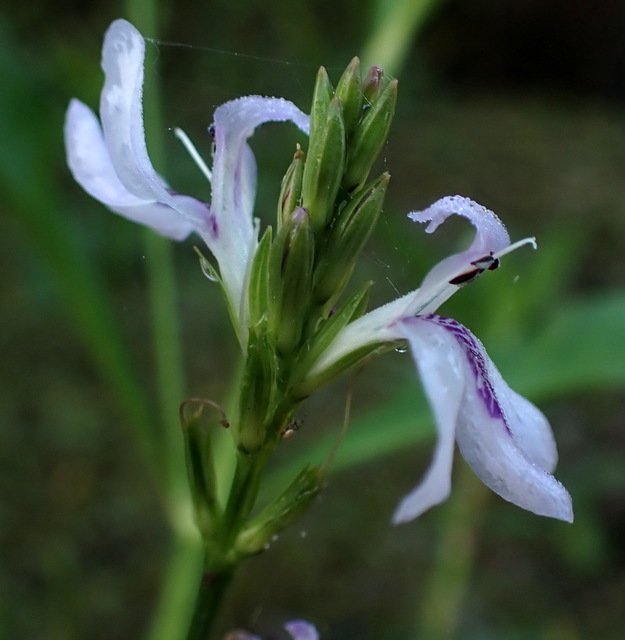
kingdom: Plantae
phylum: Tracheophyta
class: Magnoliopsida
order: Lamiales
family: Acanthaceae
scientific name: Acanthaceae
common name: Acanthaceae
